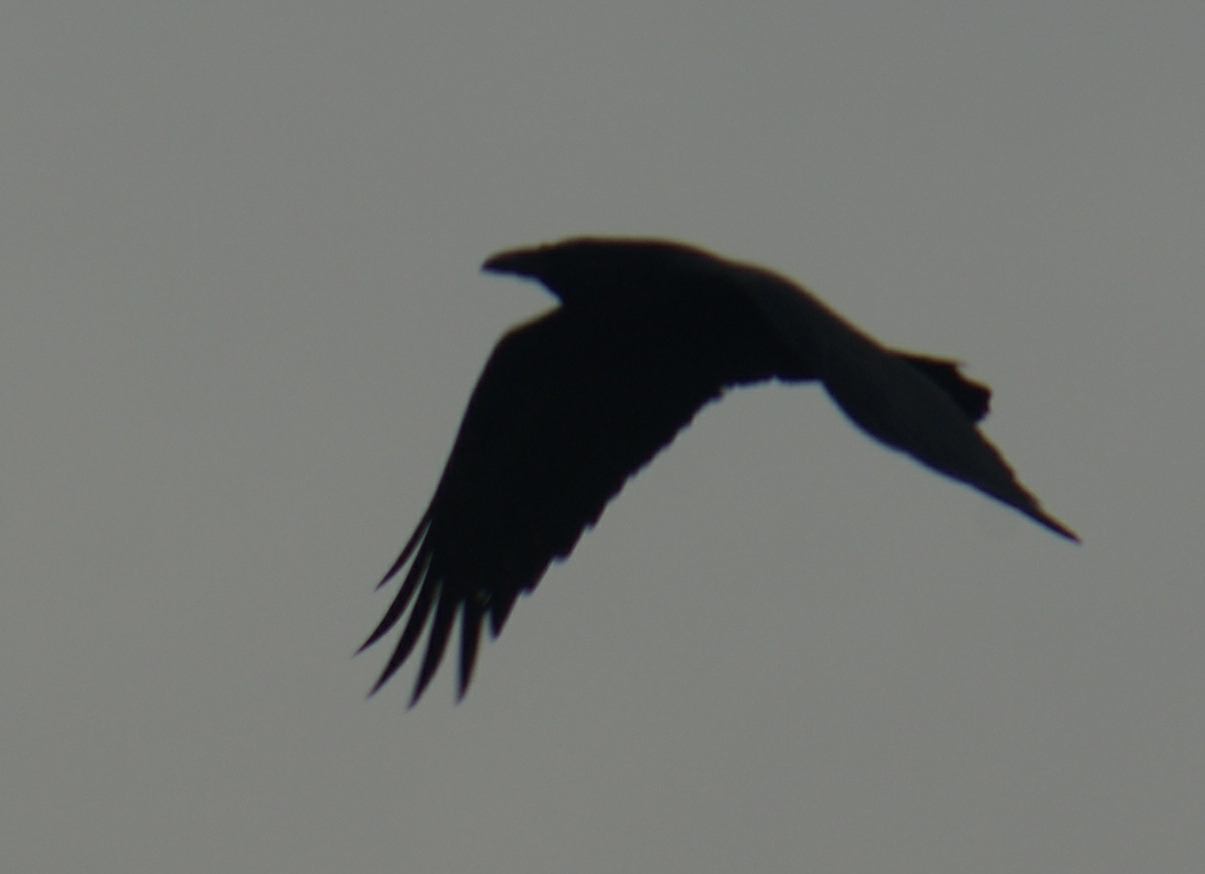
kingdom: Animalia
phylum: Chordata
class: Aves
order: Passeriformes
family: Corvidae
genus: Corvus
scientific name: Corvus corax
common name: Common raven
